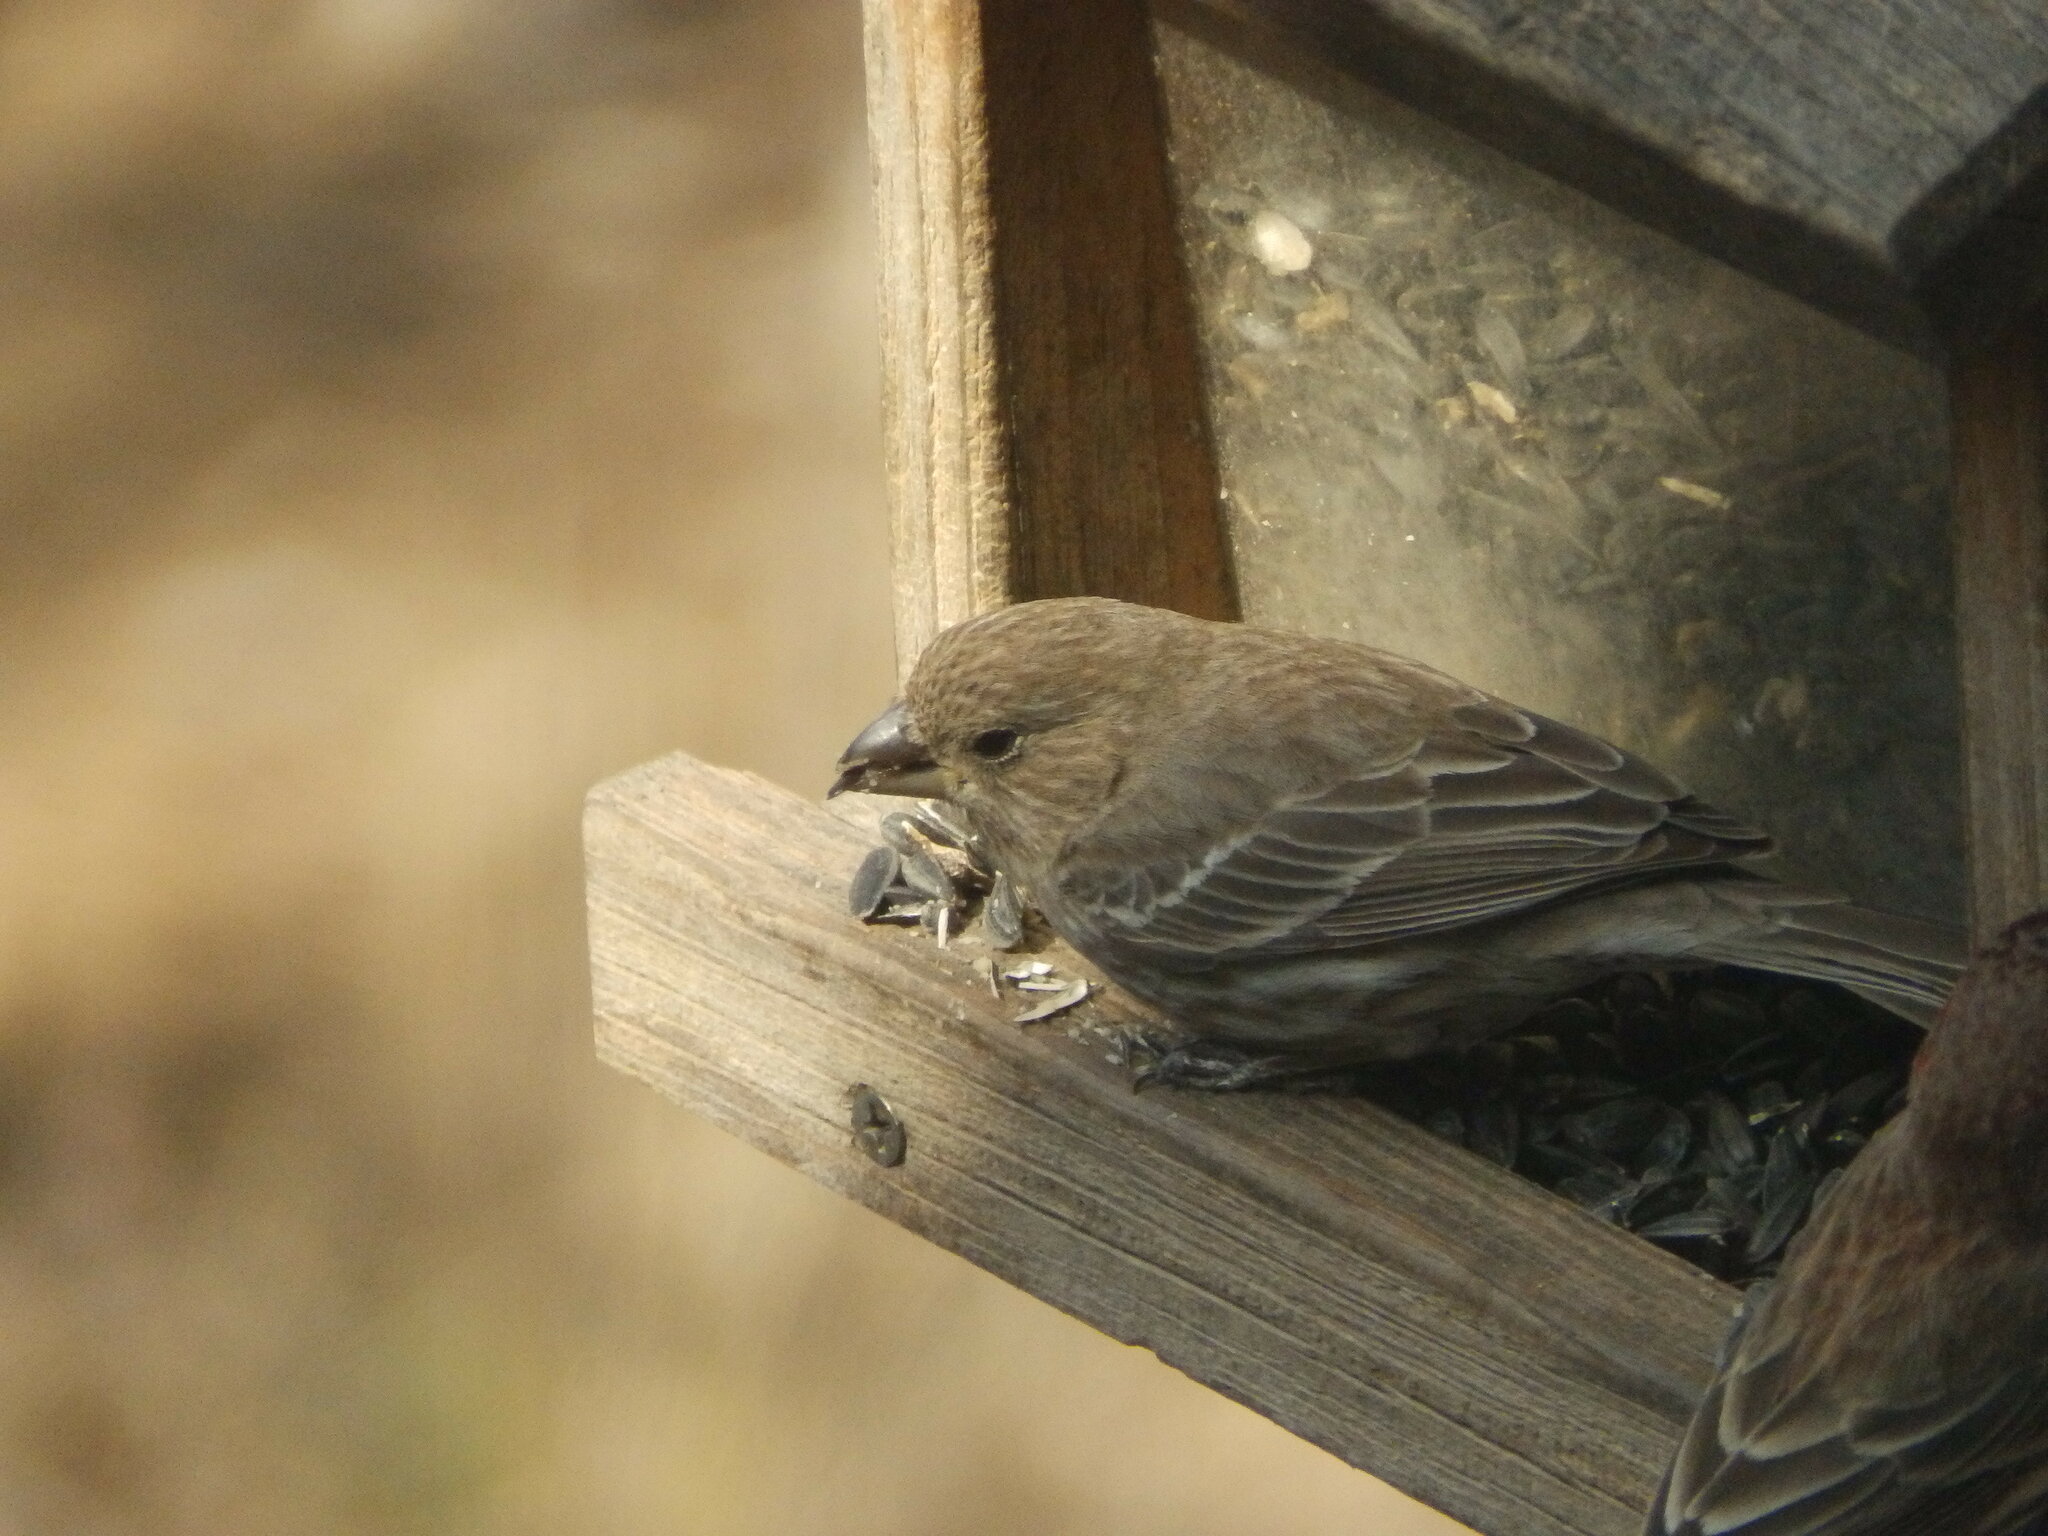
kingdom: Animalia
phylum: Chordata
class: Aves
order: Passeriformes
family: Fringillidae
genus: Haemorhous
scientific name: Haemorhous mexicanus
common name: House finch
